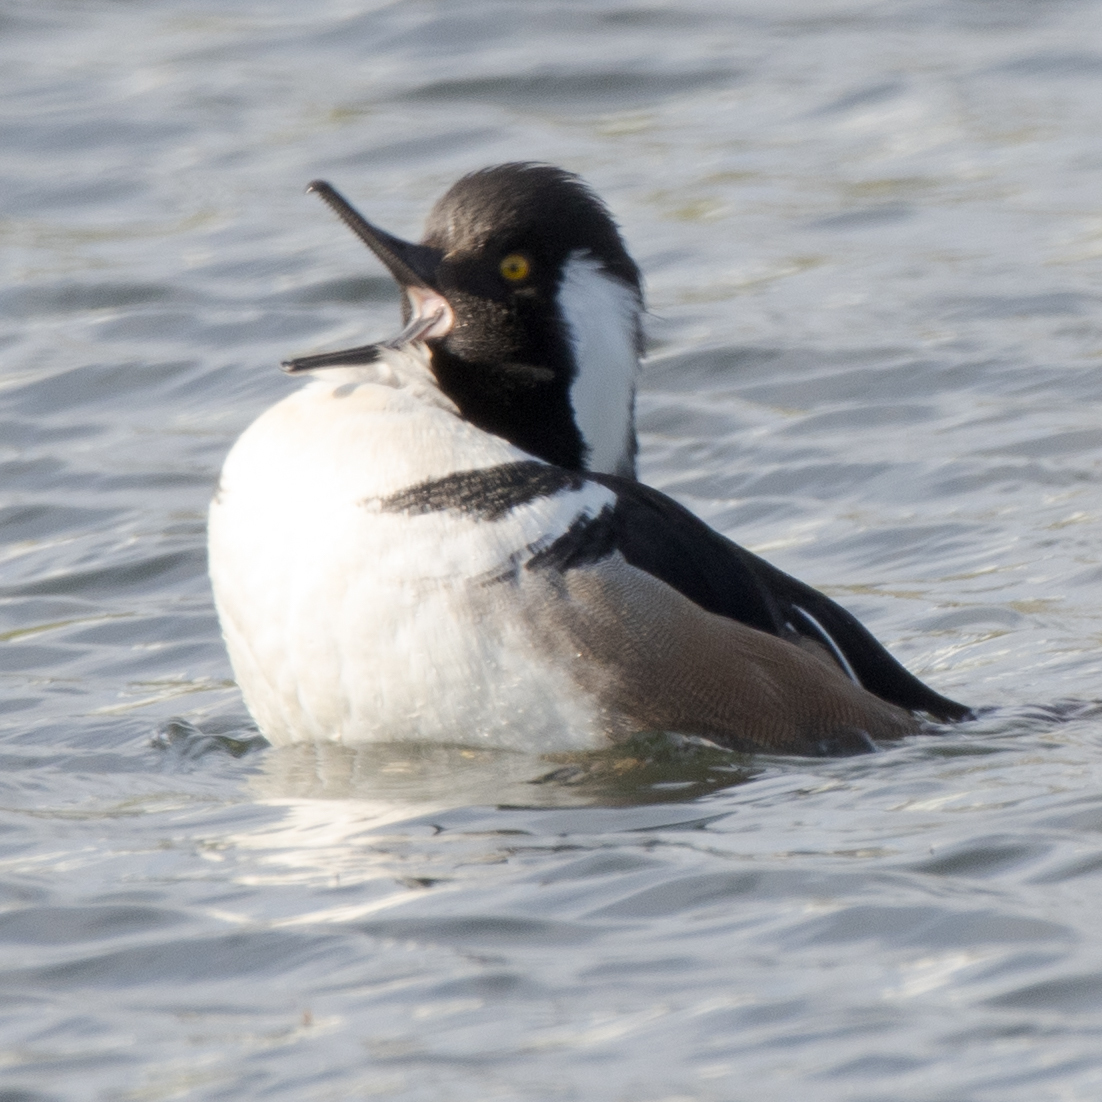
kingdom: Animalia
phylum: Chordata
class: Aves
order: Anseriformes
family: Anatidae
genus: Lophodytes
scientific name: Lophodytes cucullatus
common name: Hooded merganser
